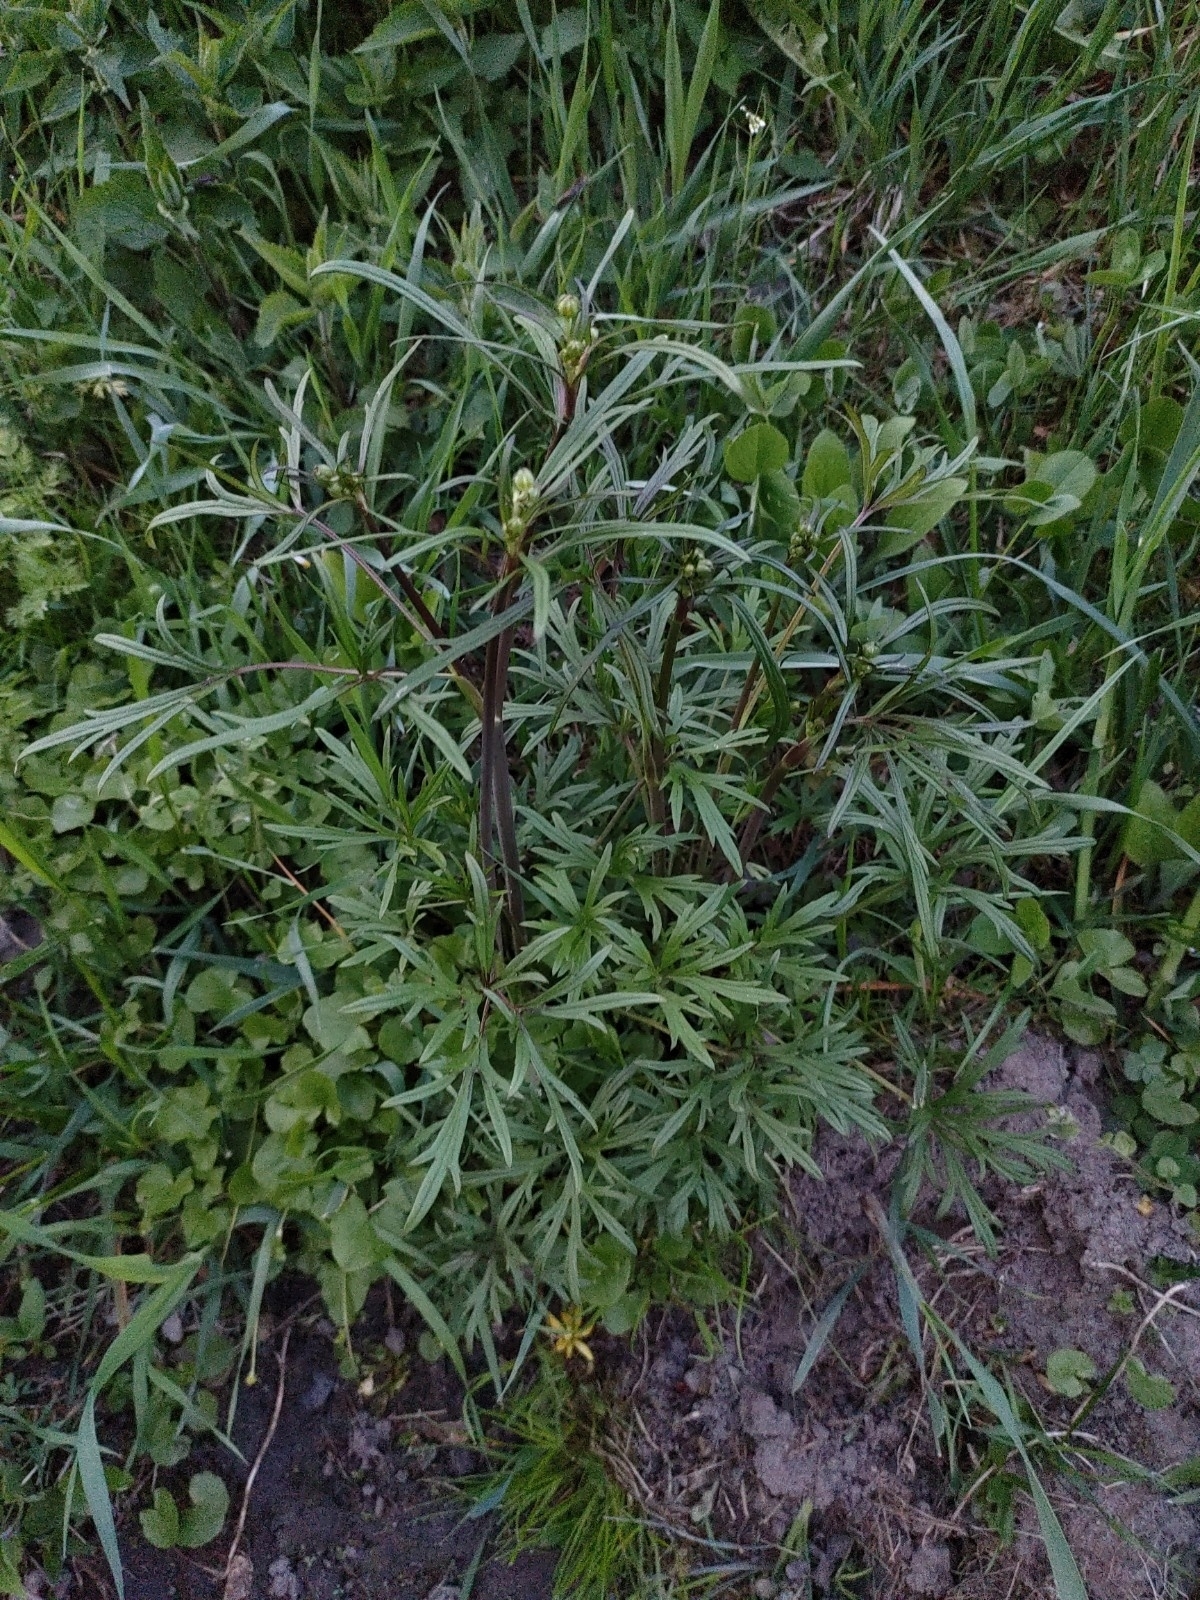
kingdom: Plantae
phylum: Tracheophyta
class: Magnoliopsida
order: Ranunculales
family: Ranunculaceae
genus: Ranunculus
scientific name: Ranunculus acris
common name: Meadow buttercup
